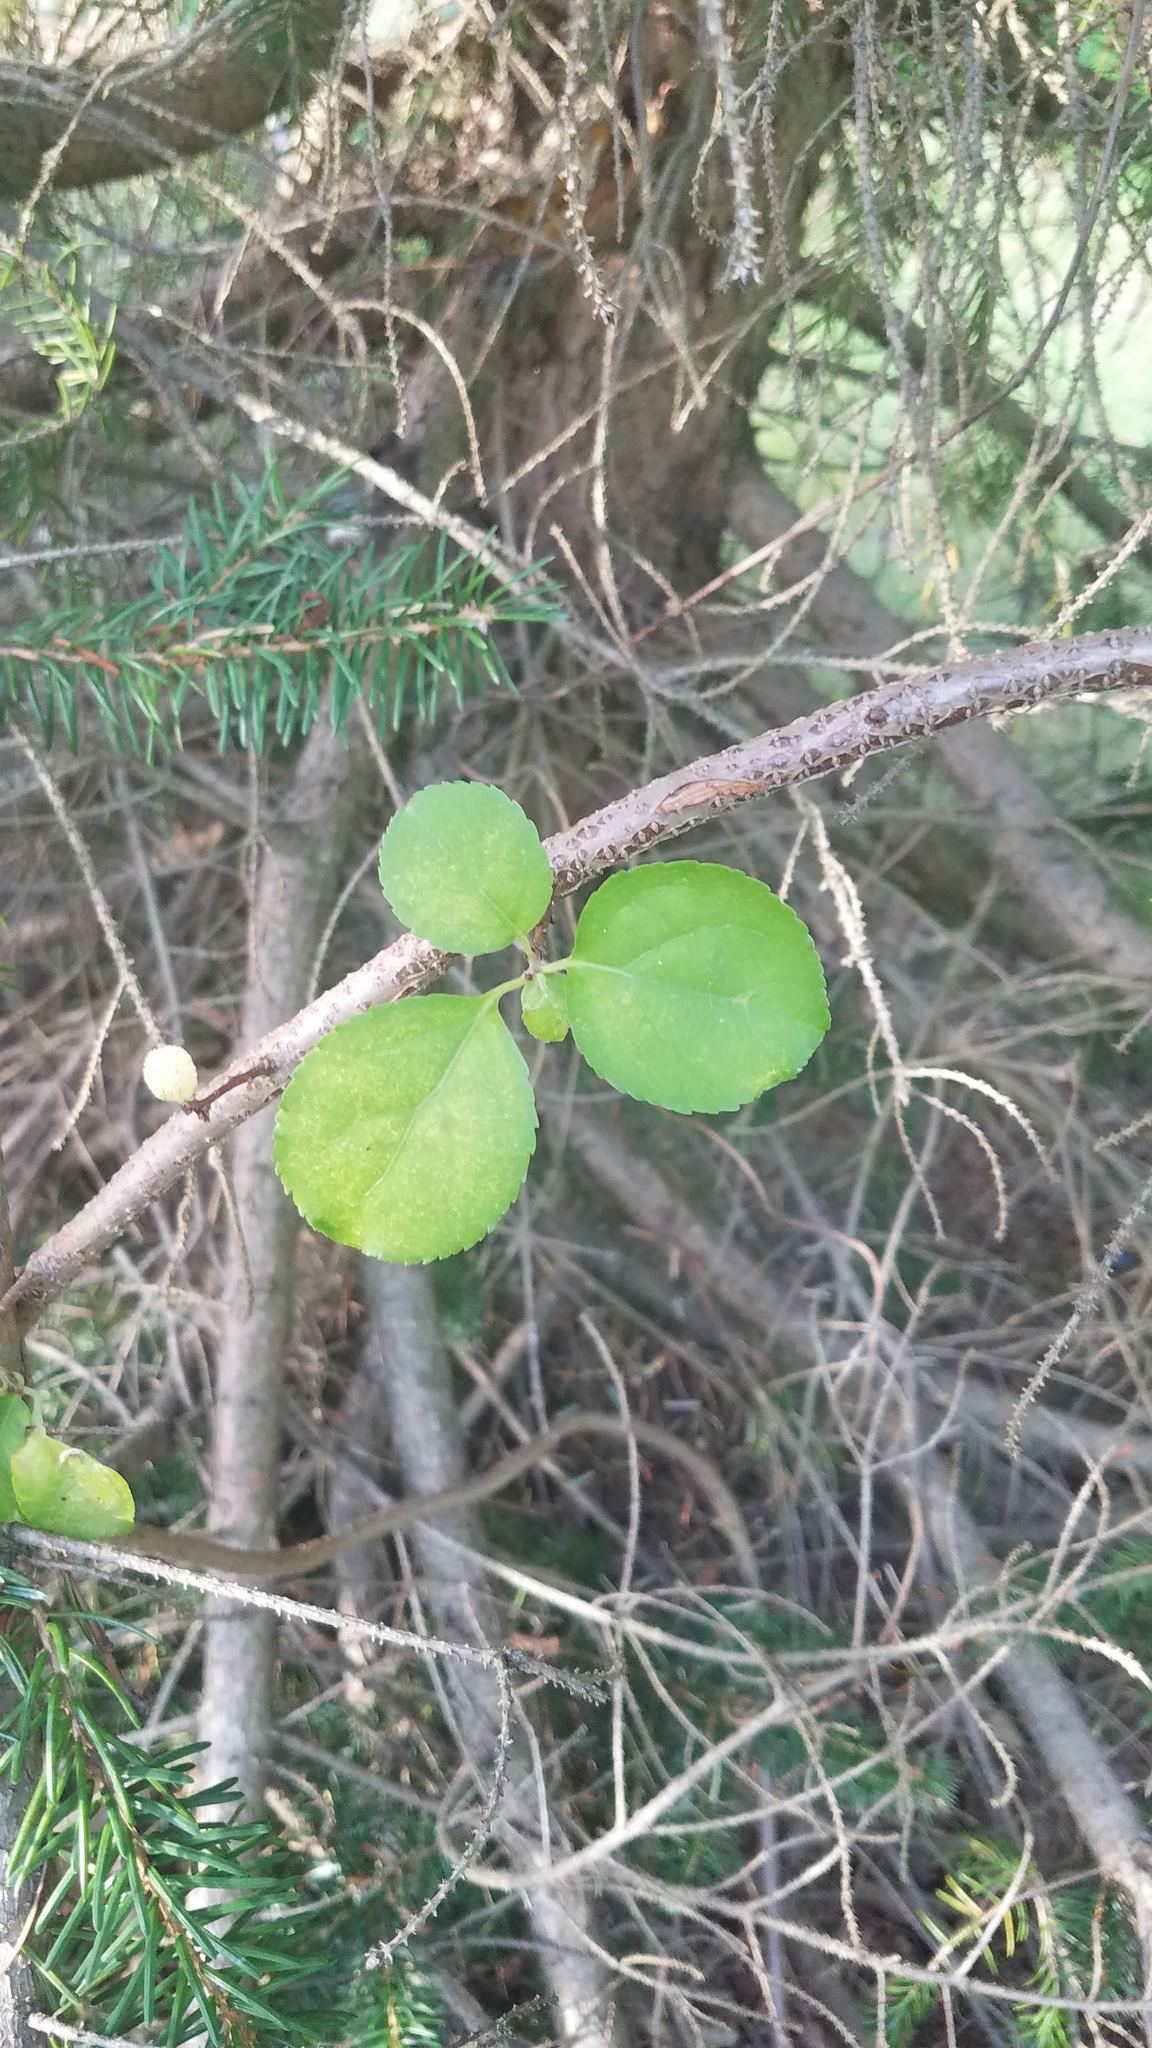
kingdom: Plantae
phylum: Tracheophyta
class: Magnoliopsida
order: Celastrales
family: Celastraceae
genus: Celastrus
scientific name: Celastrus orbiculatus
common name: Oriental bittersweet
